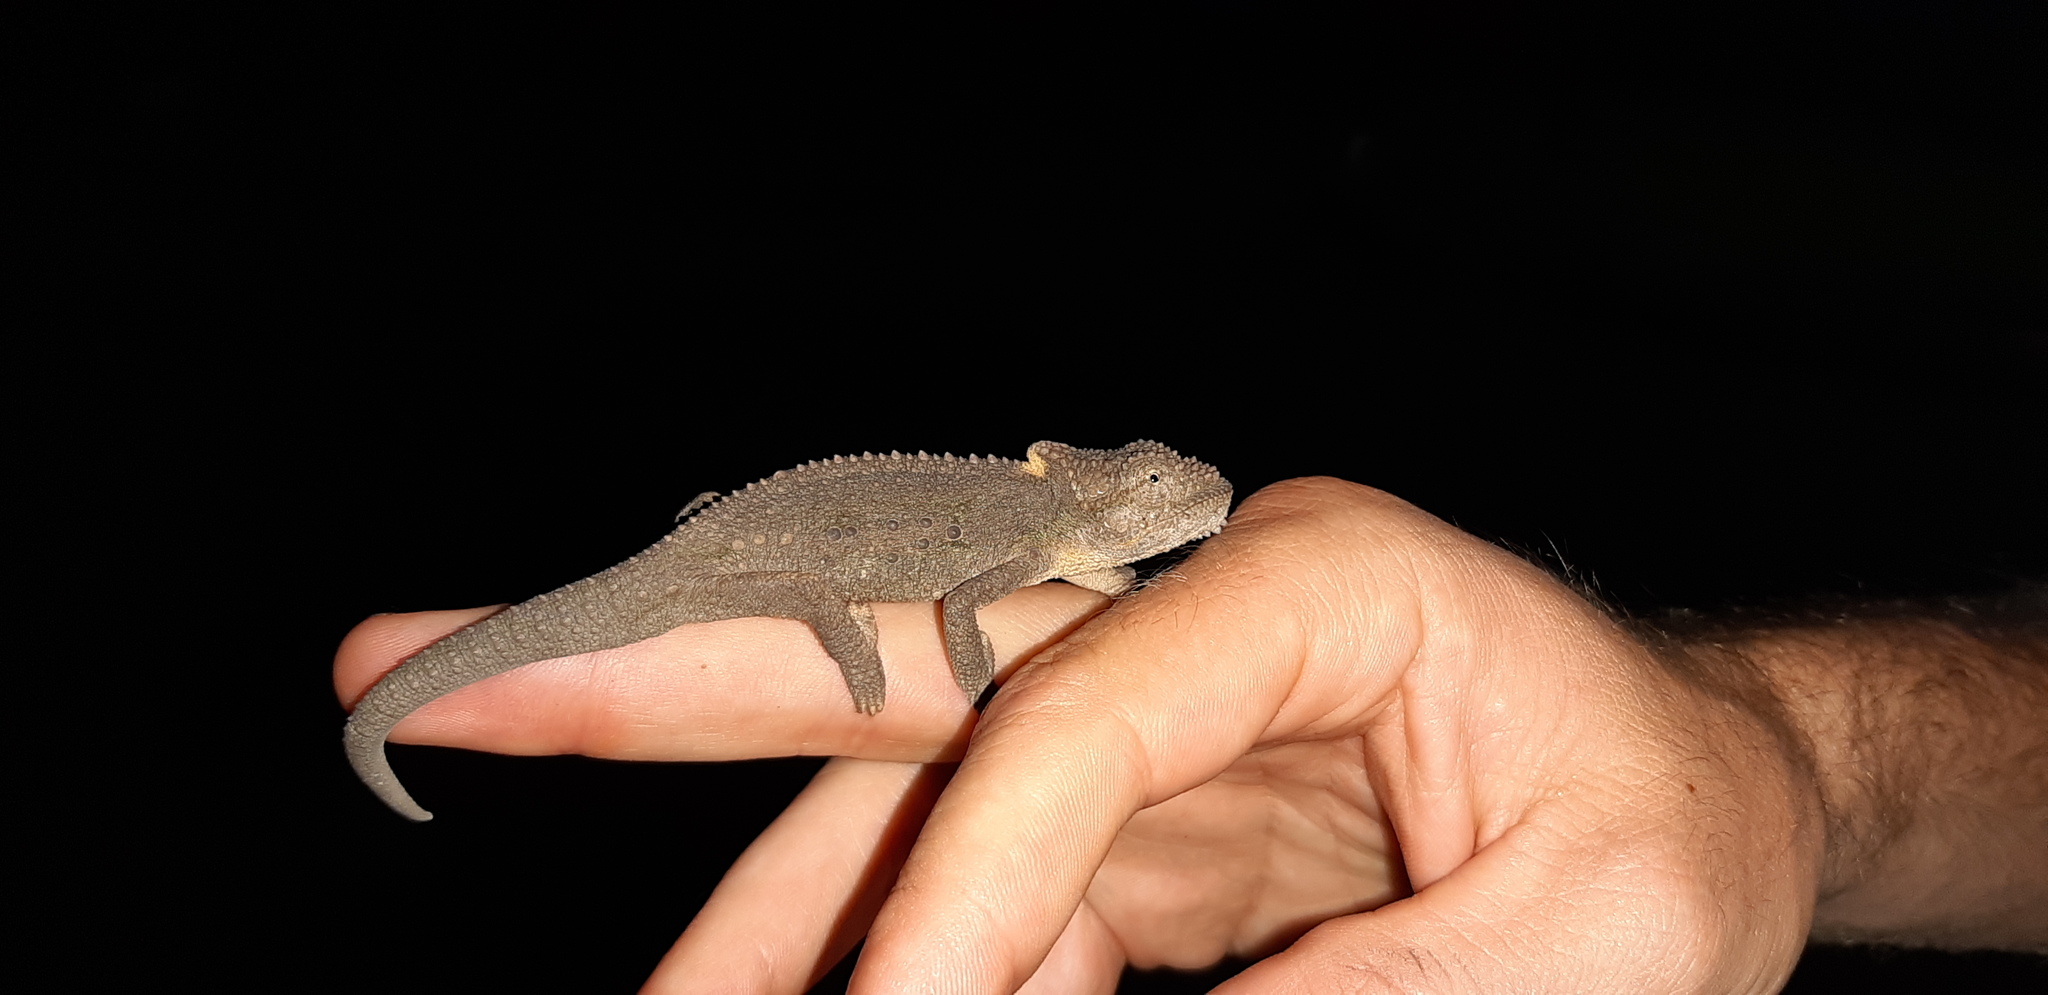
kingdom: Animalia
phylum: Chordata
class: Squamata
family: Chamaeleonidae
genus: Bradypodion
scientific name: Bradypodion ventrale
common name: Eastern cape dwarf chameleon
